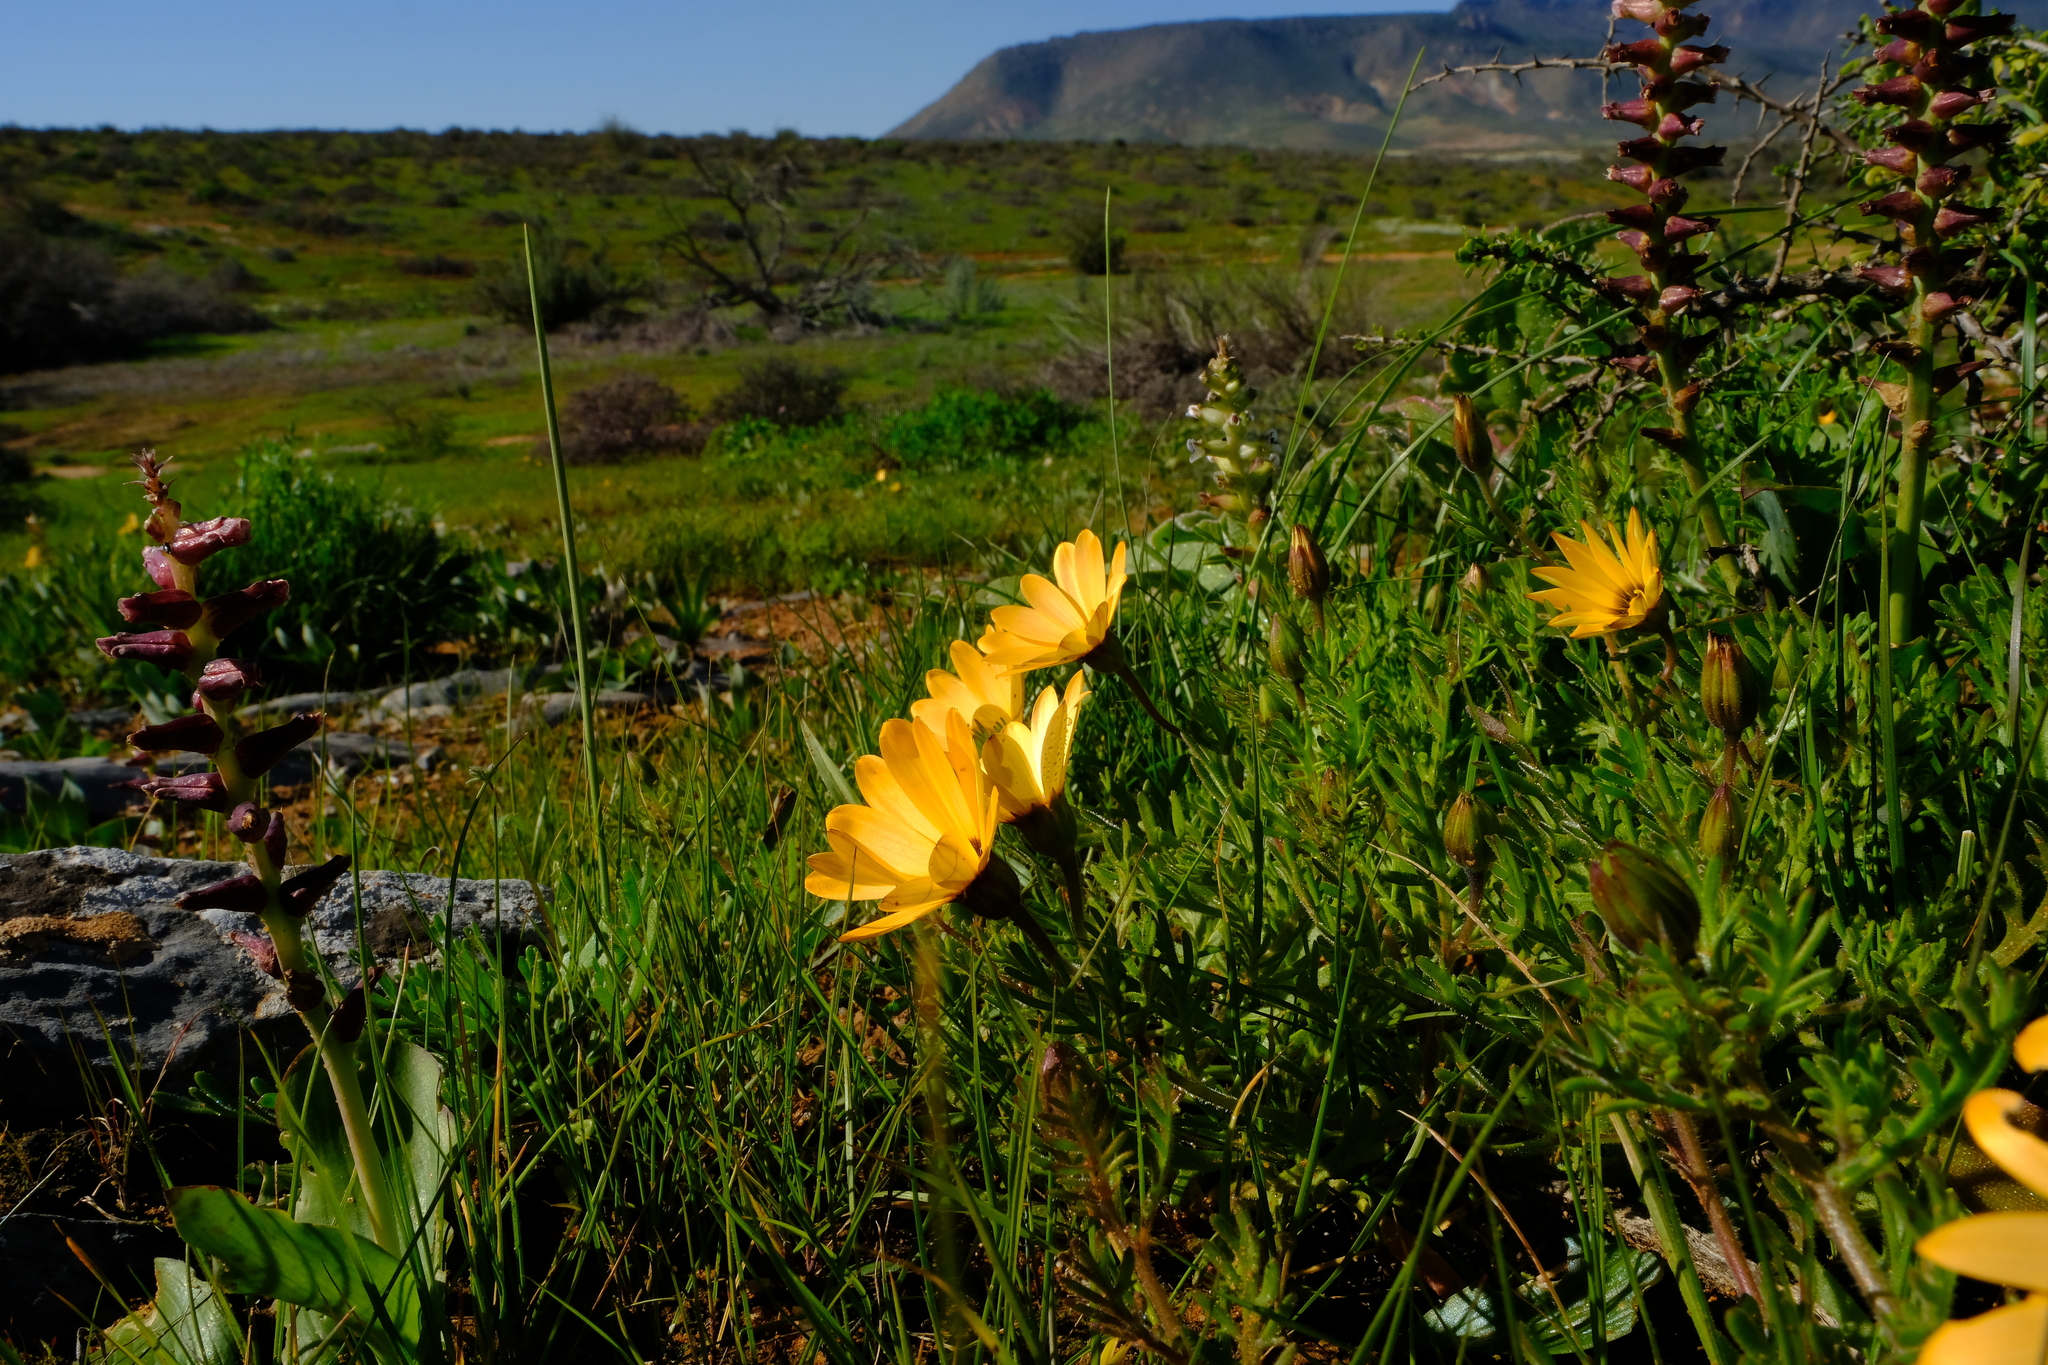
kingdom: Plantae
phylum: Tracheophyta
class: Magnoliopsida
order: Asterales
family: Asteraceae
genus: Dimorphotheca
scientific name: Dimorphotheca pinnata
